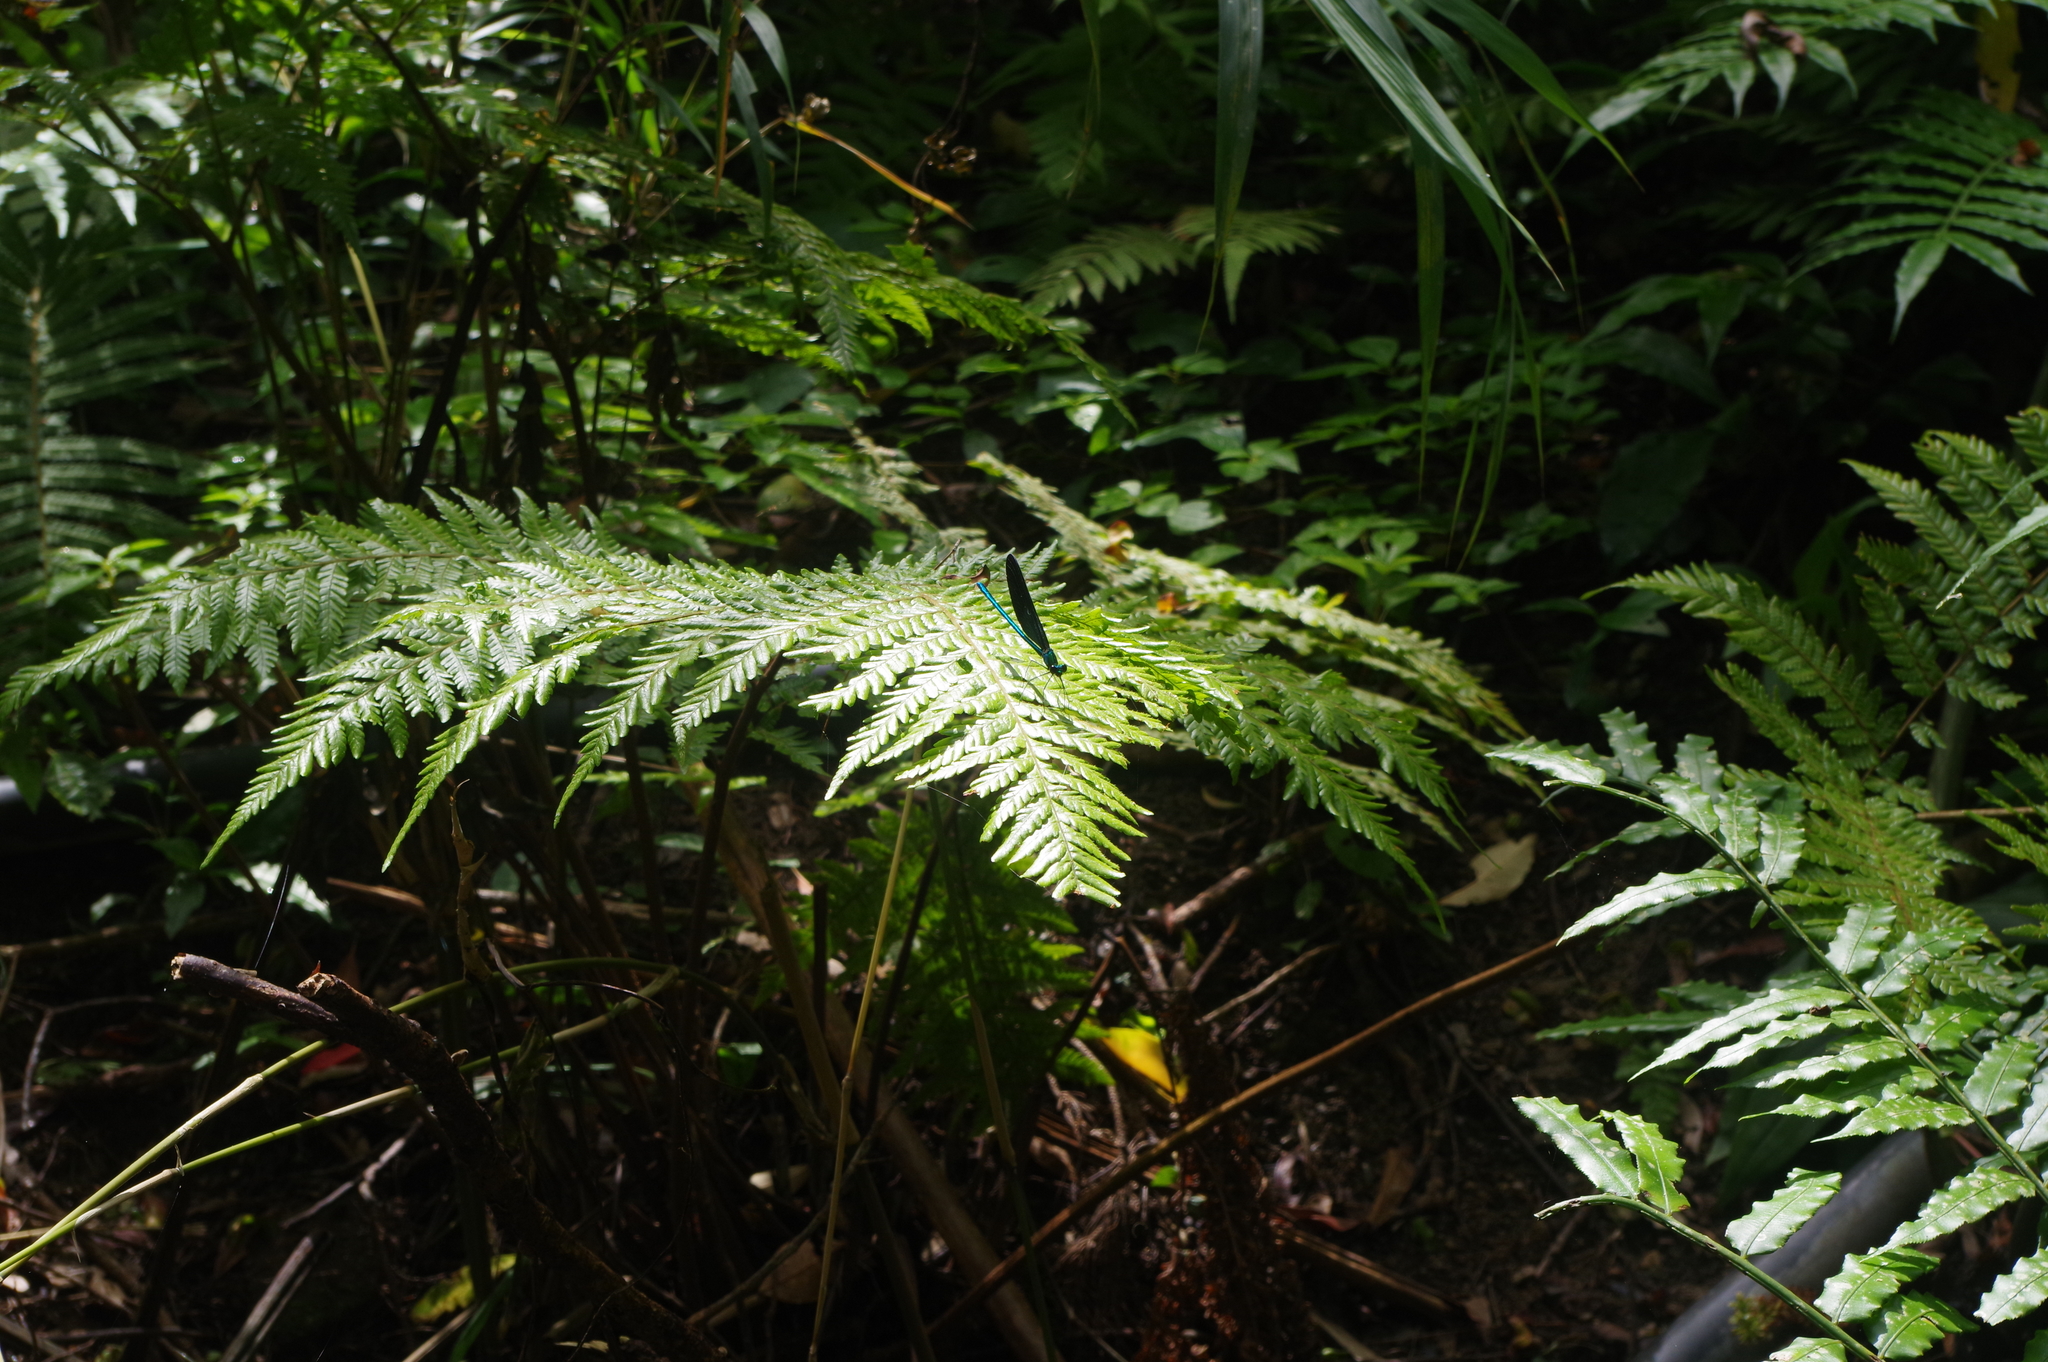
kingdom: Animalia
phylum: Arthropoda
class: Insecta
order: Odonata
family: Calopterygidae
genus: Matrona
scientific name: Matrona japonica
